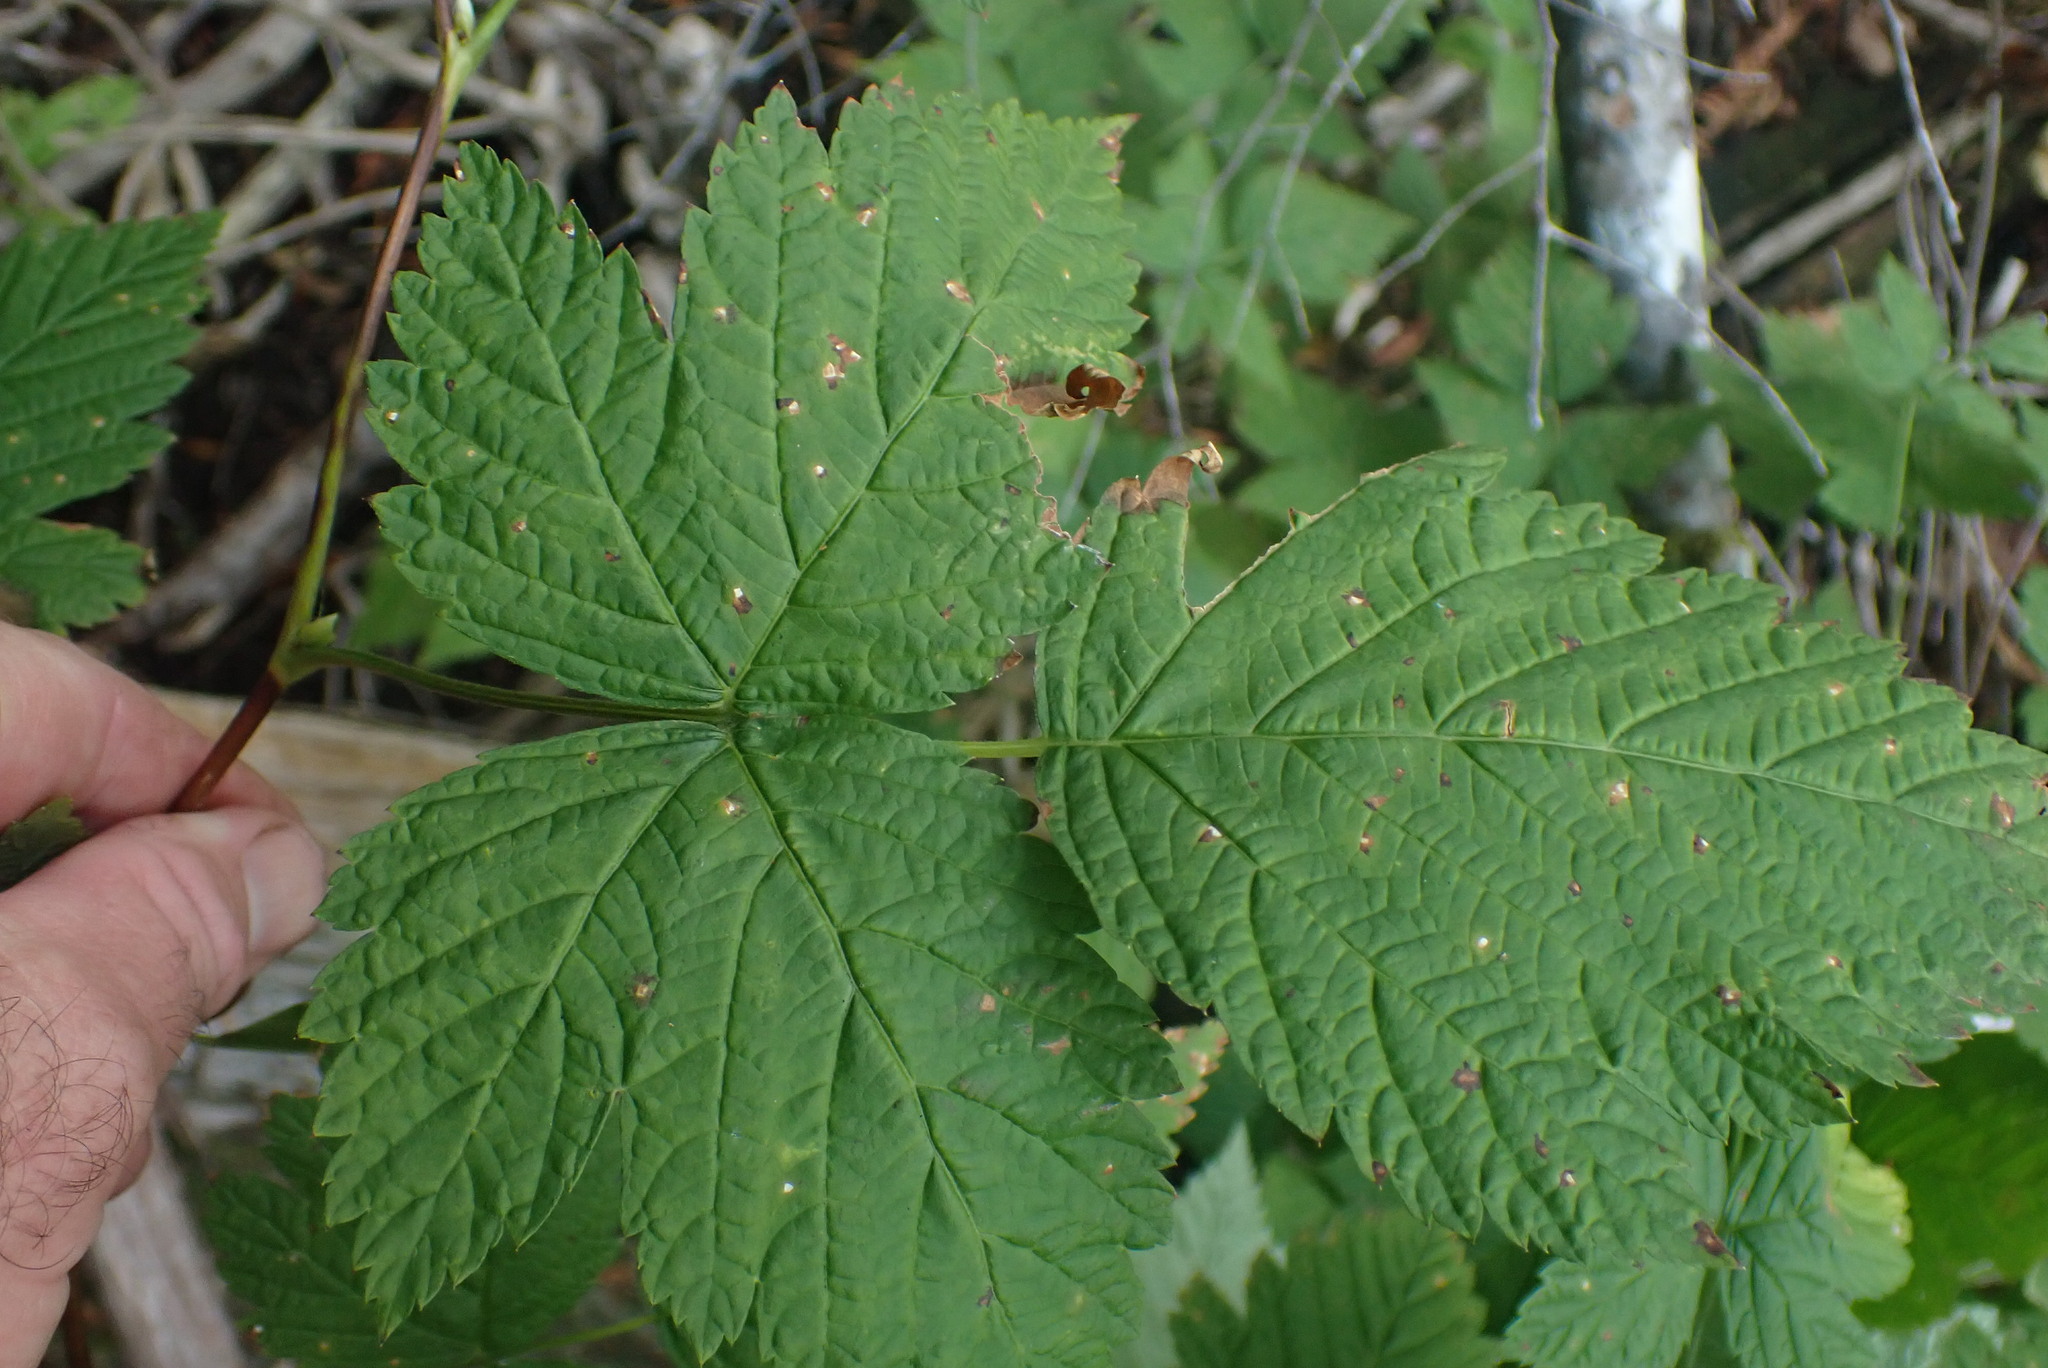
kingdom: Plantae
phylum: Tracheophyta
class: Magnoliopsida
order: Rosales
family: Rosaceae
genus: Rubus
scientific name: Rubus spectabilis
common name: Salmonberry
